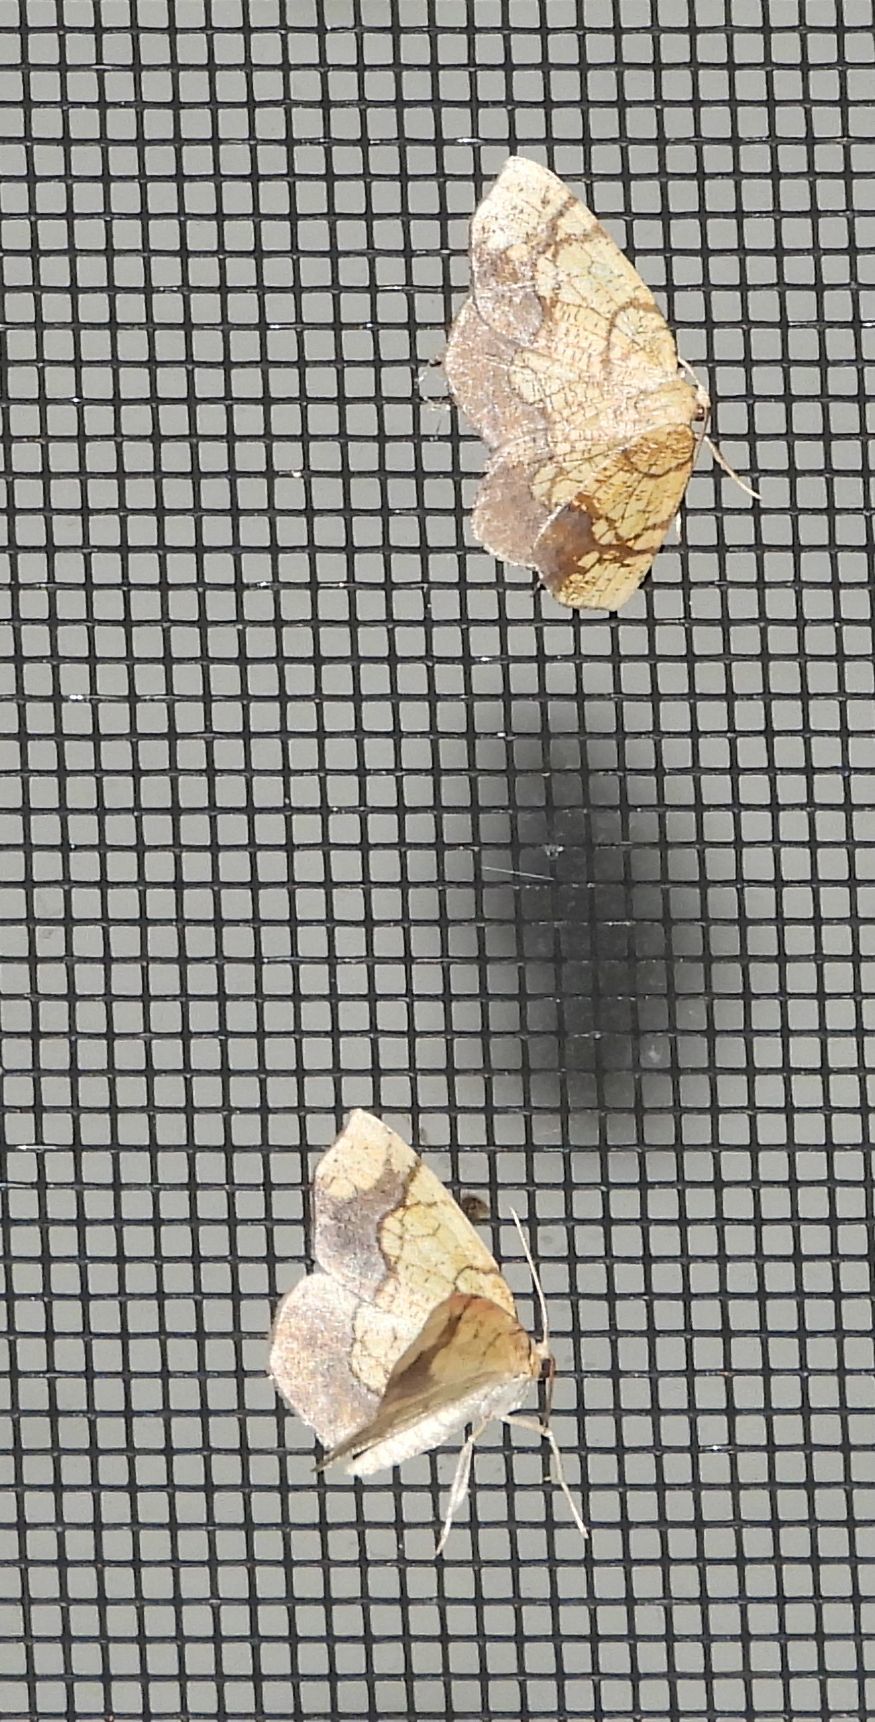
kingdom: Animalia
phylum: Arthropoda
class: Insecta
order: Lepidoptera
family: Geometridae
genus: Nematocampa
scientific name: Nematocampa resistaria
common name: Horned spanworm moth
